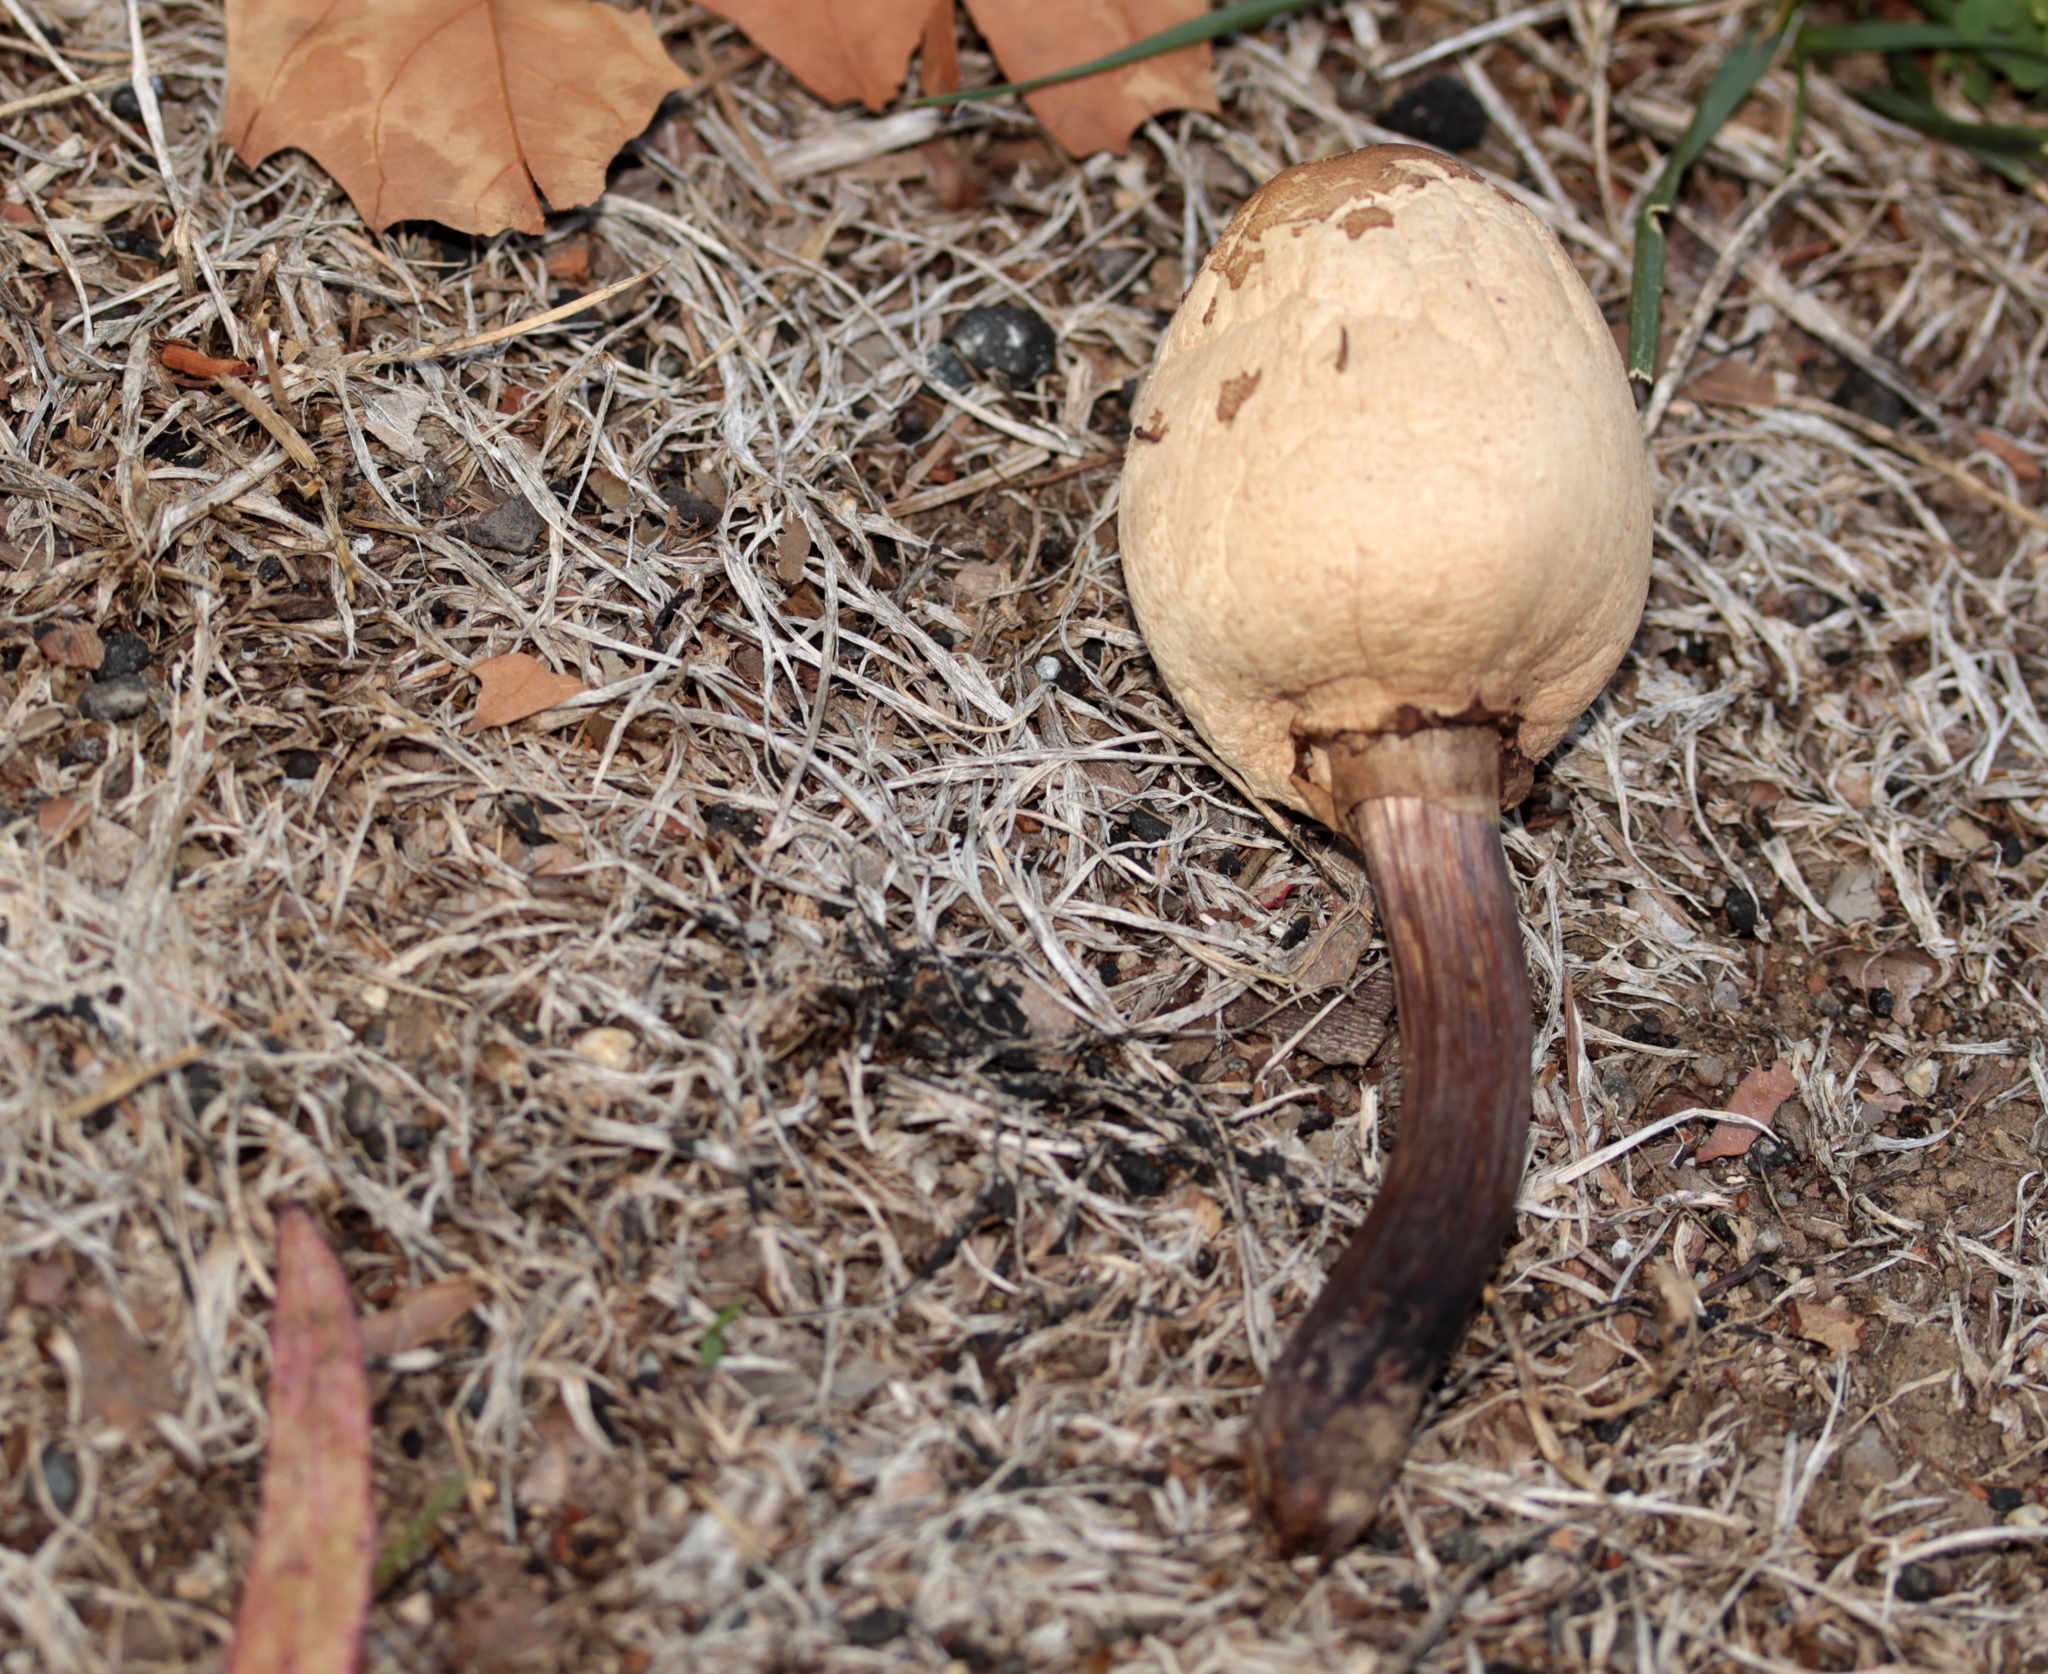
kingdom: Fungi
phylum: Basidiomycota
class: Agaricomycetes
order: Agaricales
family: Agaricaceae
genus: Chlorophyllum
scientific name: Chlorophyllum molybdites
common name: False parasol
